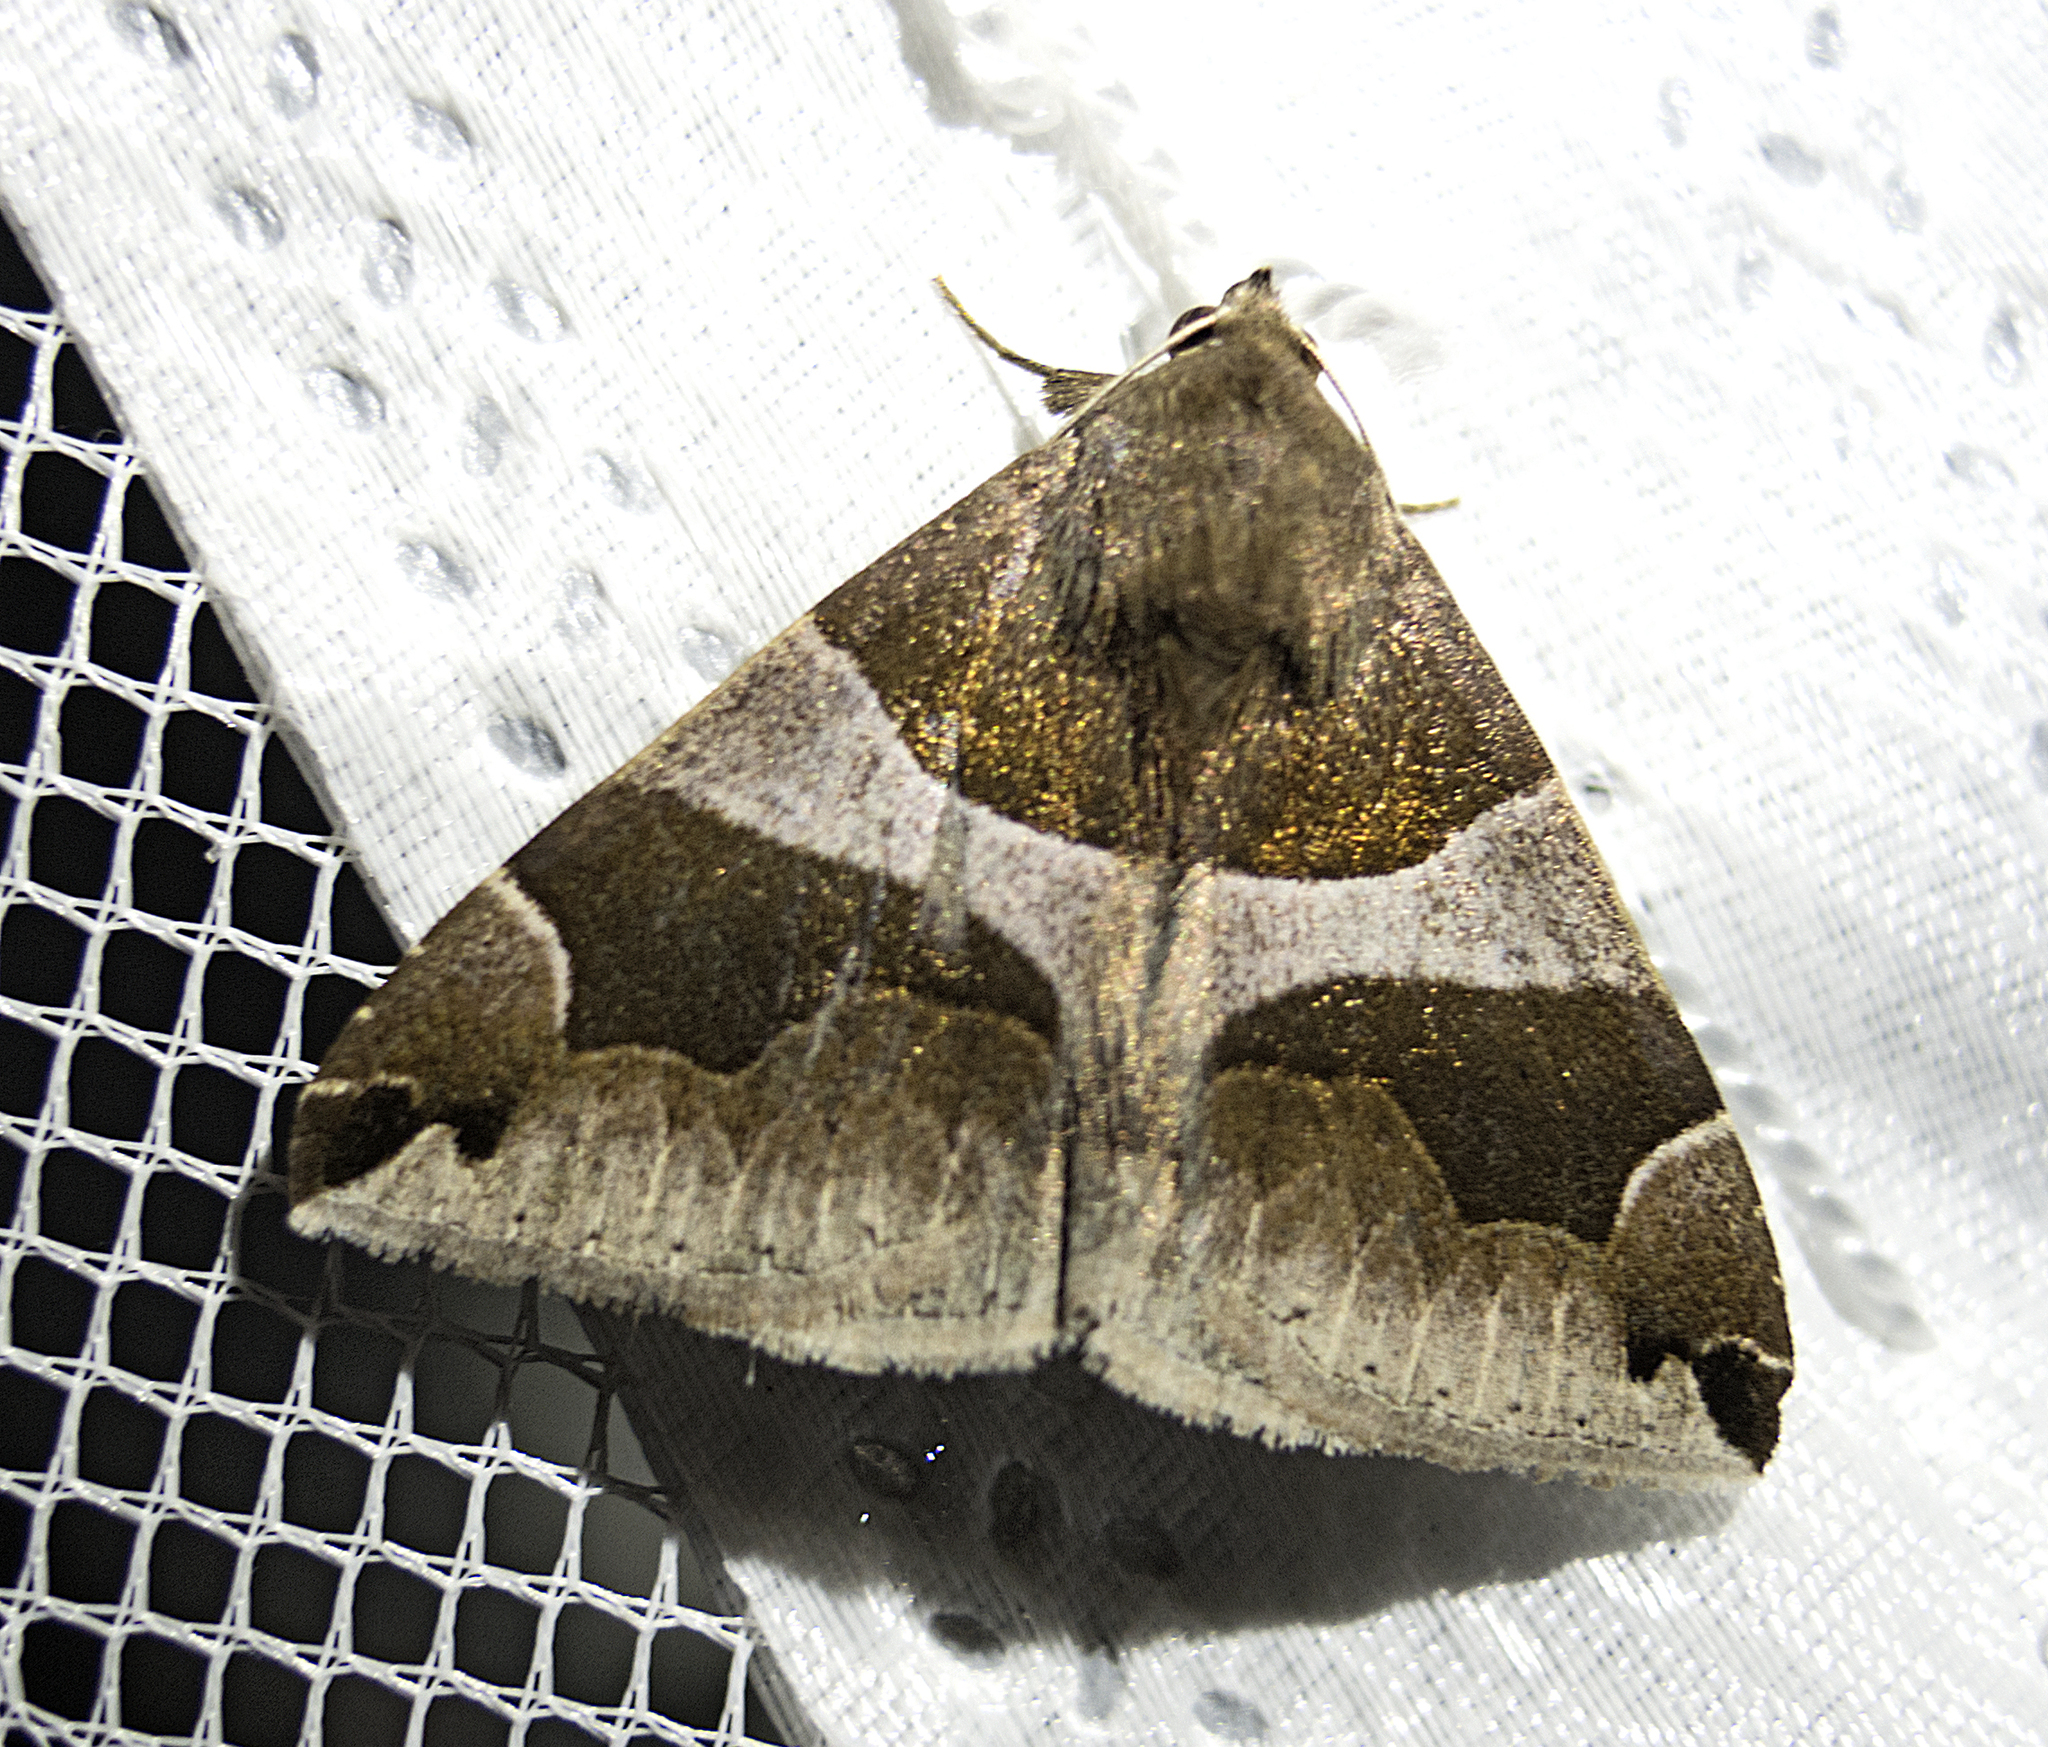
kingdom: Animalia
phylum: Arthropoda
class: Insecta
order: Lepidoptera
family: Erebidae
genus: Dysgonia
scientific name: Dysgonia algira
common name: Passenger
